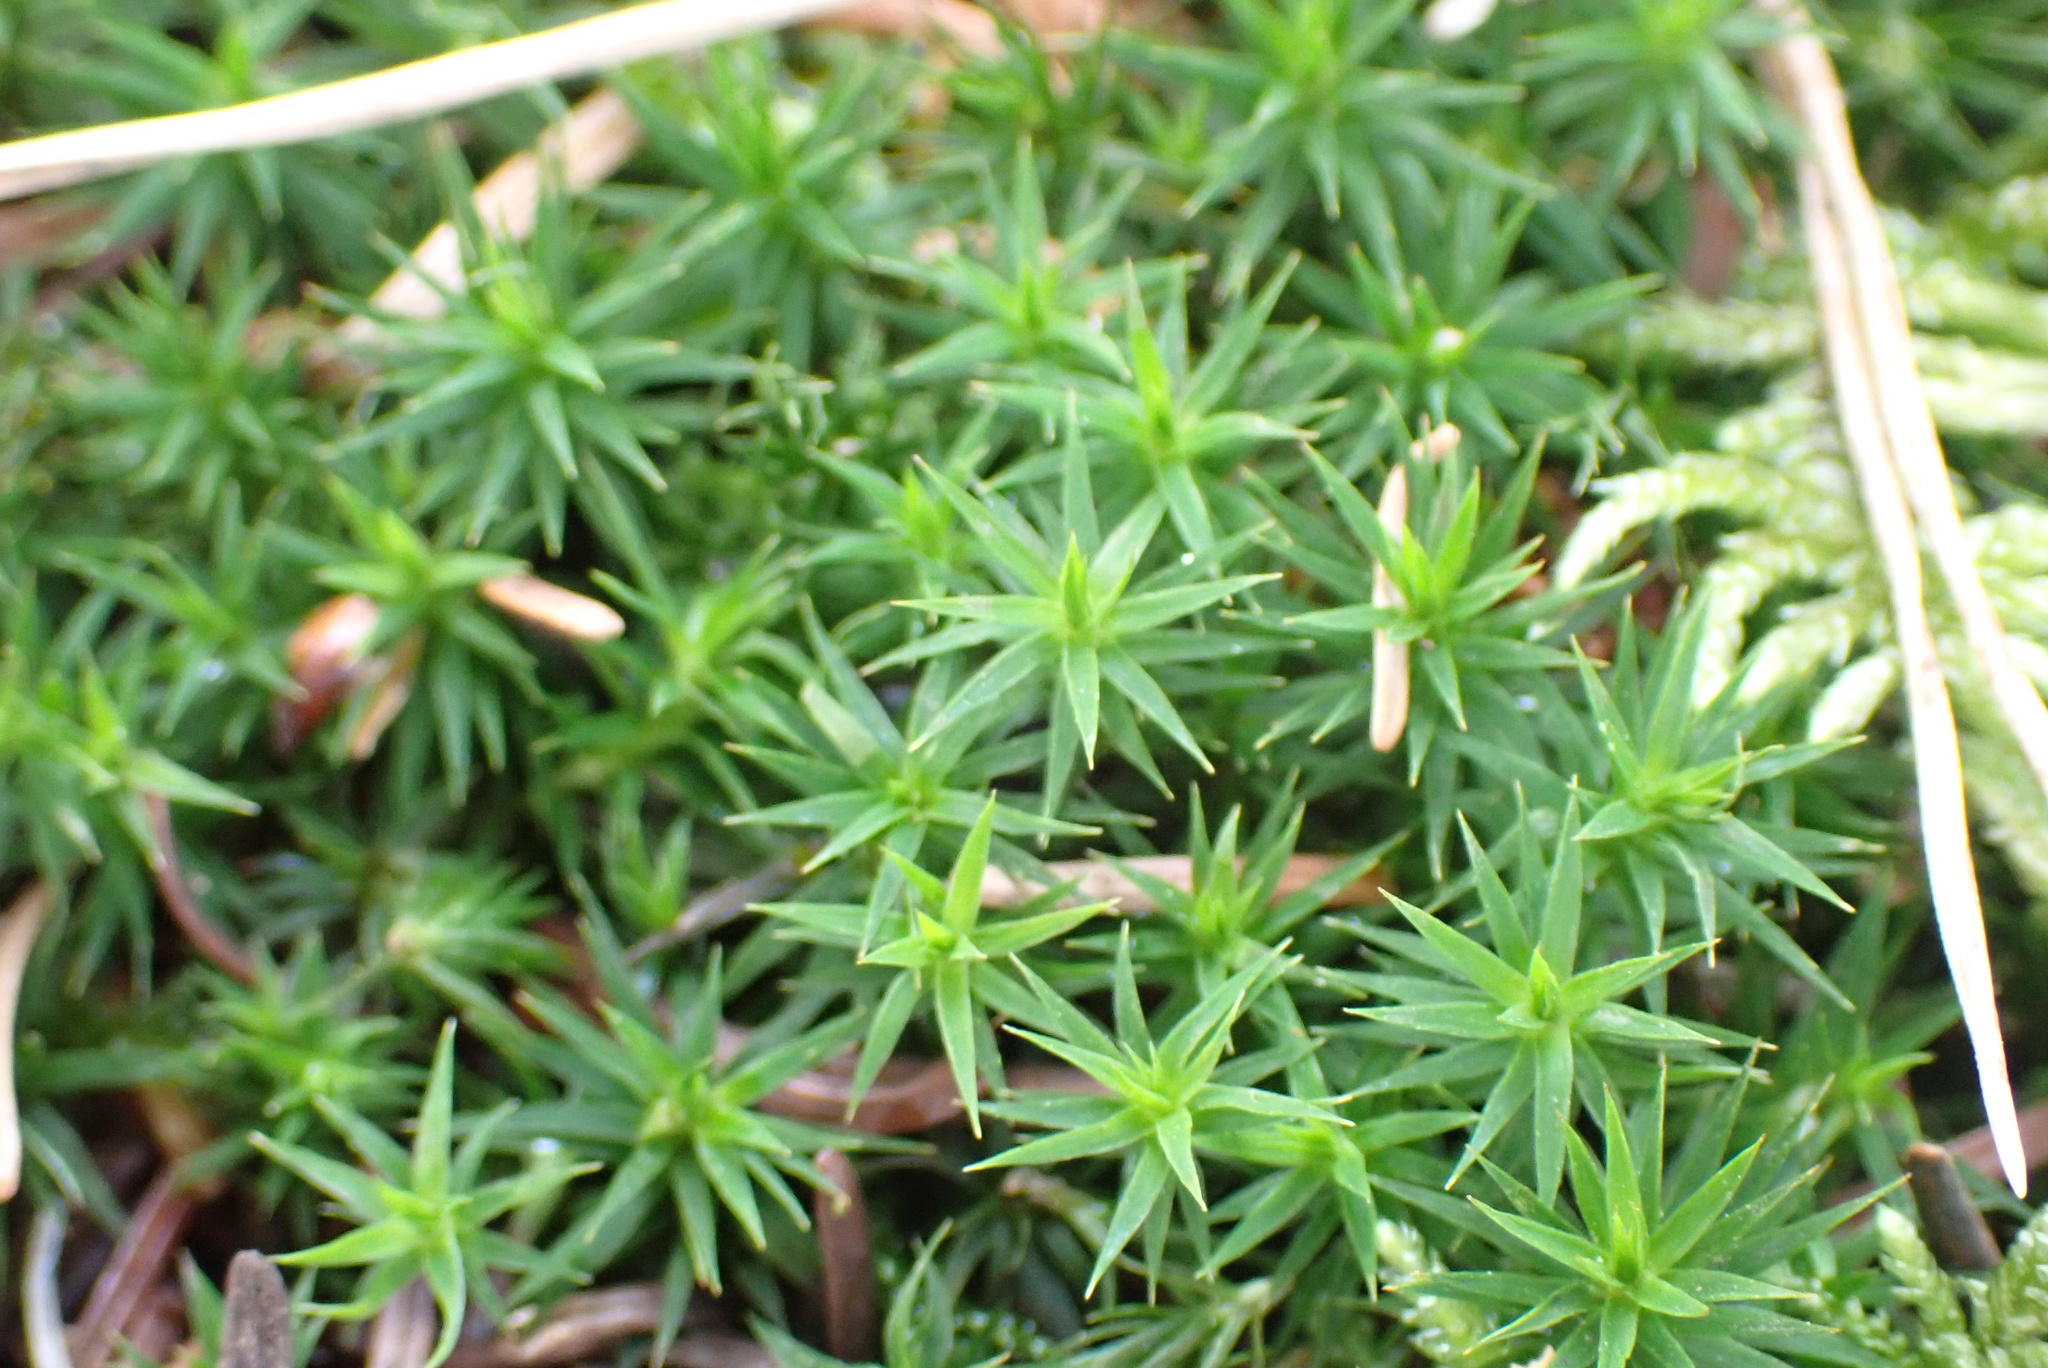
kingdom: Plantae
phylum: Bryophyta
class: Polytrichopsida
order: Polytrichales
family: Polytrichaceae
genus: Polytrichum
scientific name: Polytrichum formosum
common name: Bank haircap moss
